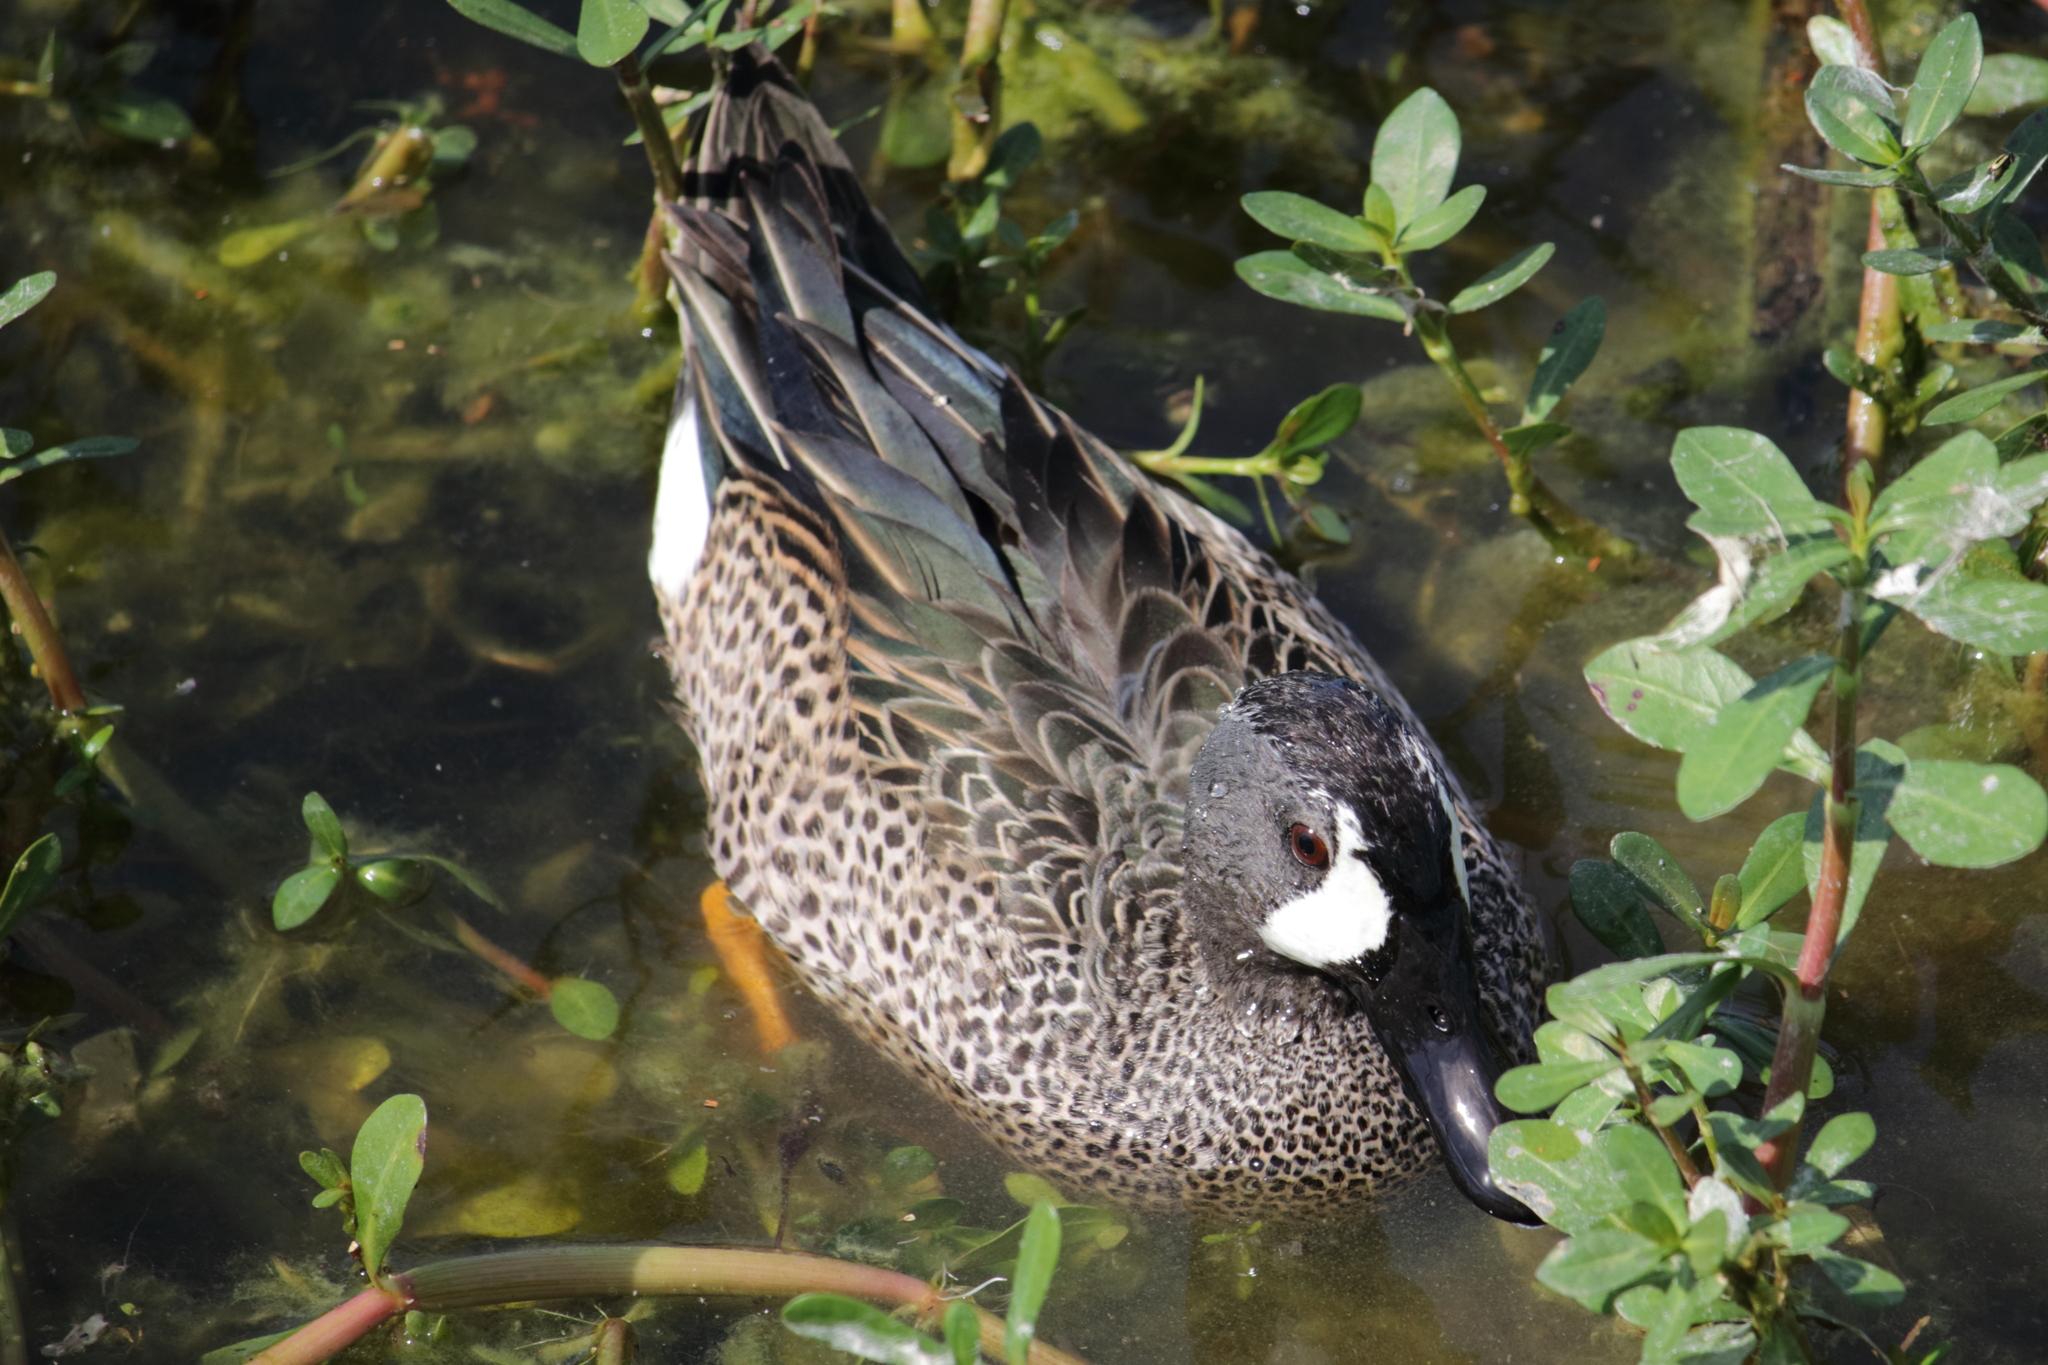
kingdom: Animalia
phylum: Chordata
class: Aves
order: Anseriformes
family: Anatidae
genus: Spatula
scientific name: Spatula discors
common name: Blue-winged teal
